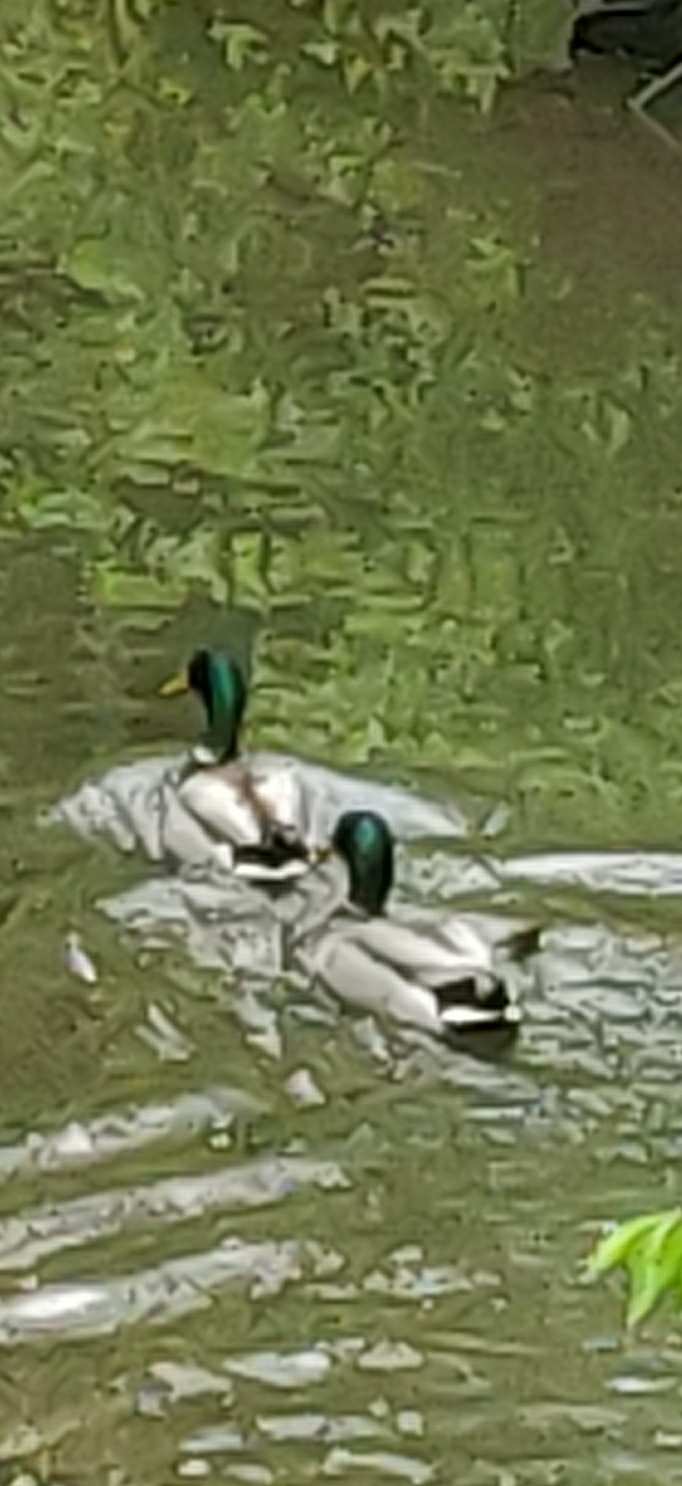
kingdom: Animalia
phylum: Chordata
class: Aves
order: Anseriformes
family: Anatidae
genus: Anas
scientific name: Anas platyrhynchos
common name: Mallard
